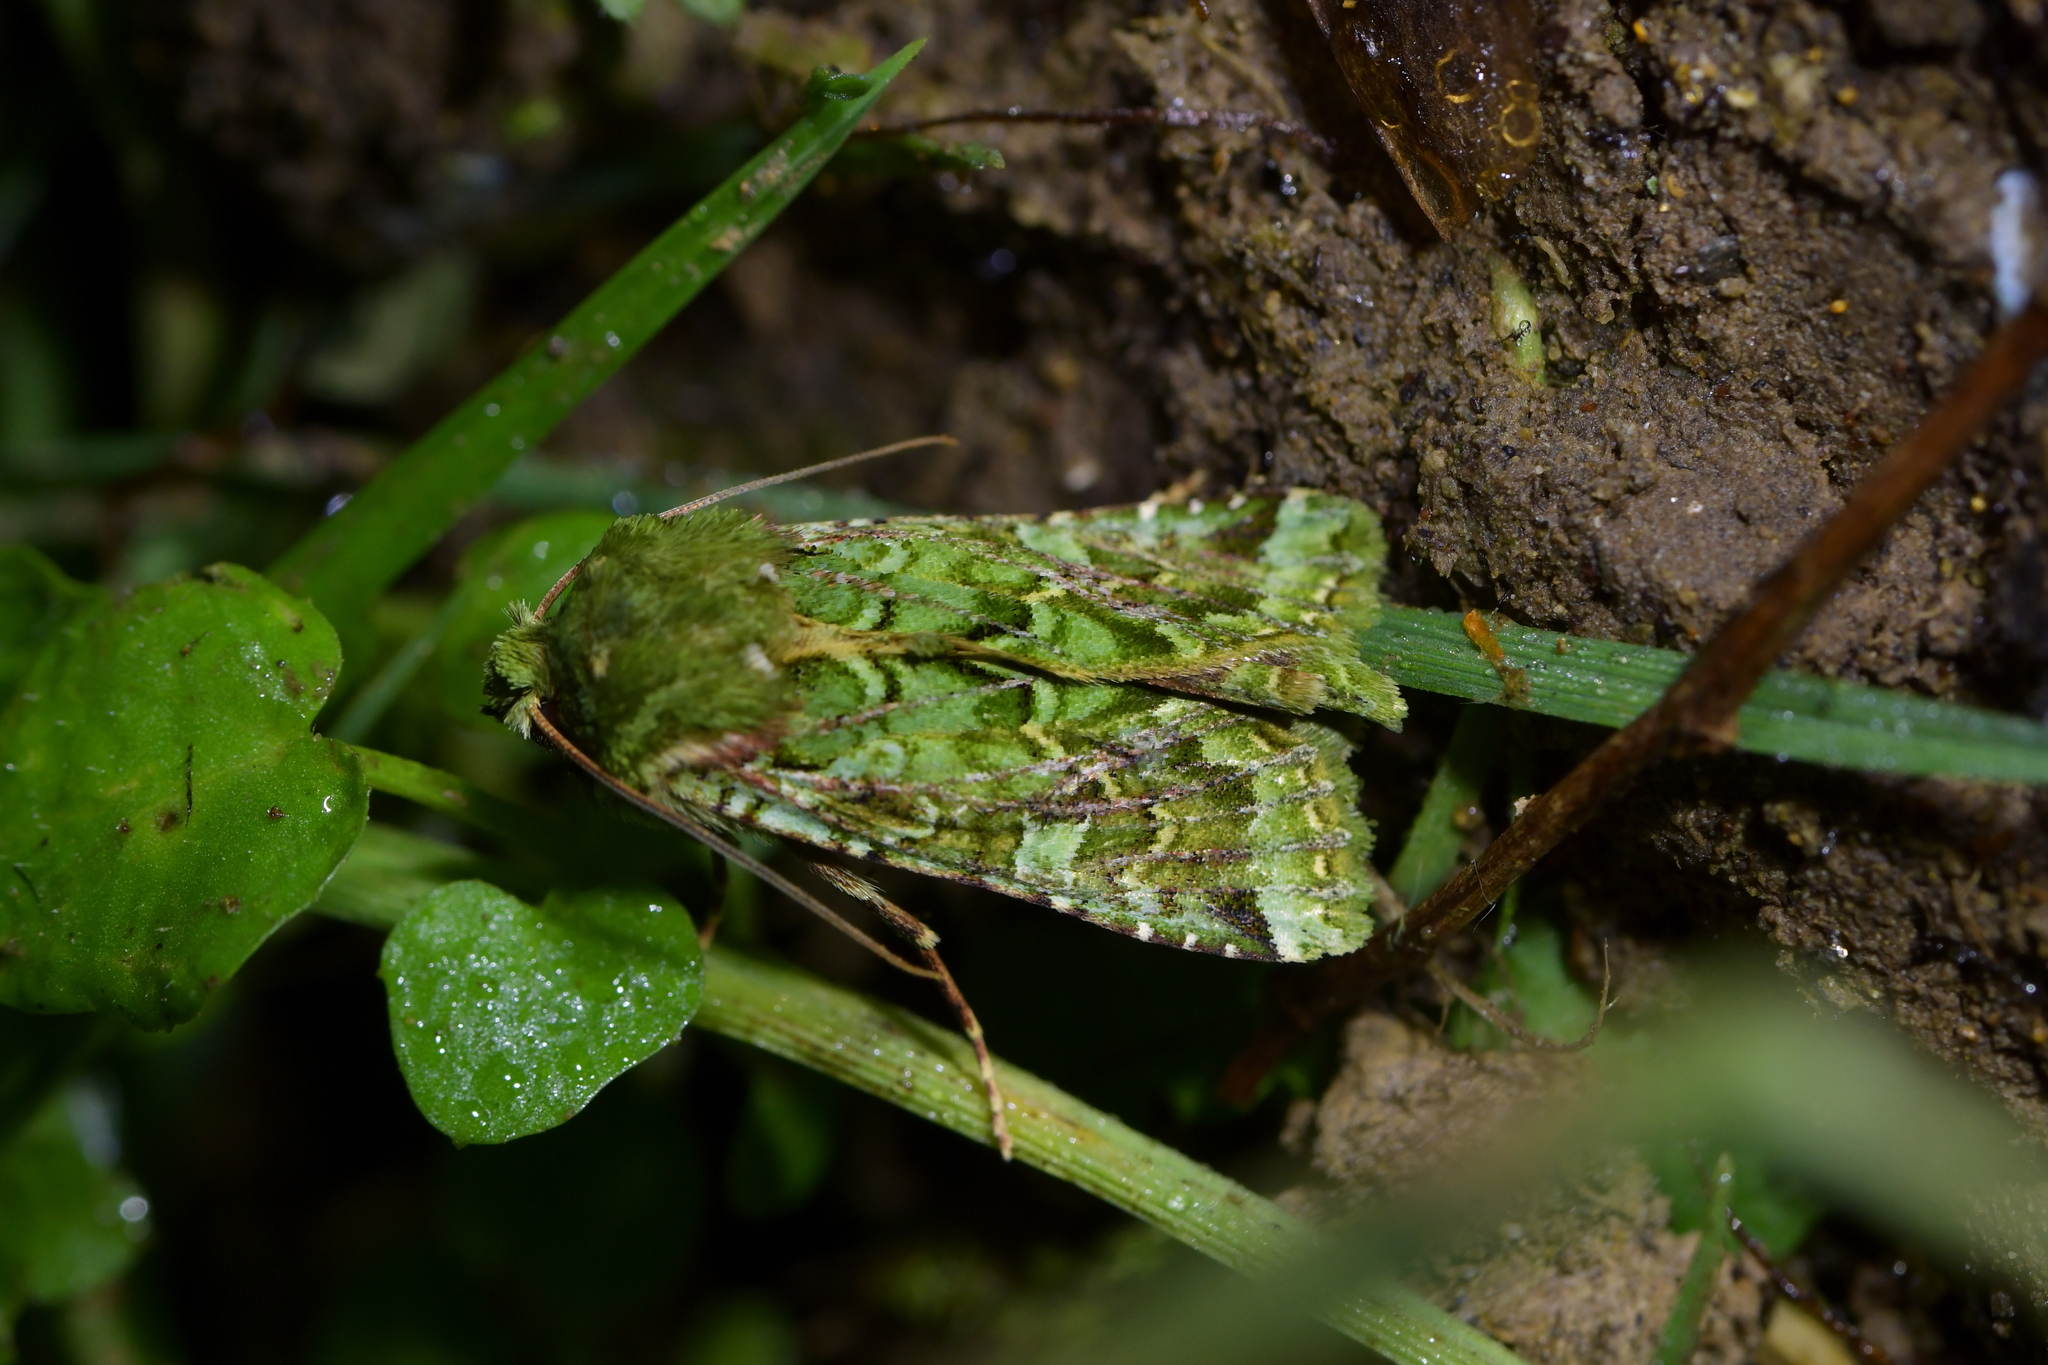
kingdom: Animalia
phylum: Arthropoda
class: Insecta
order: Lepidoptera
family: Noctuidae
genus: Feredayia
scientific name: Feredayia grammosa
